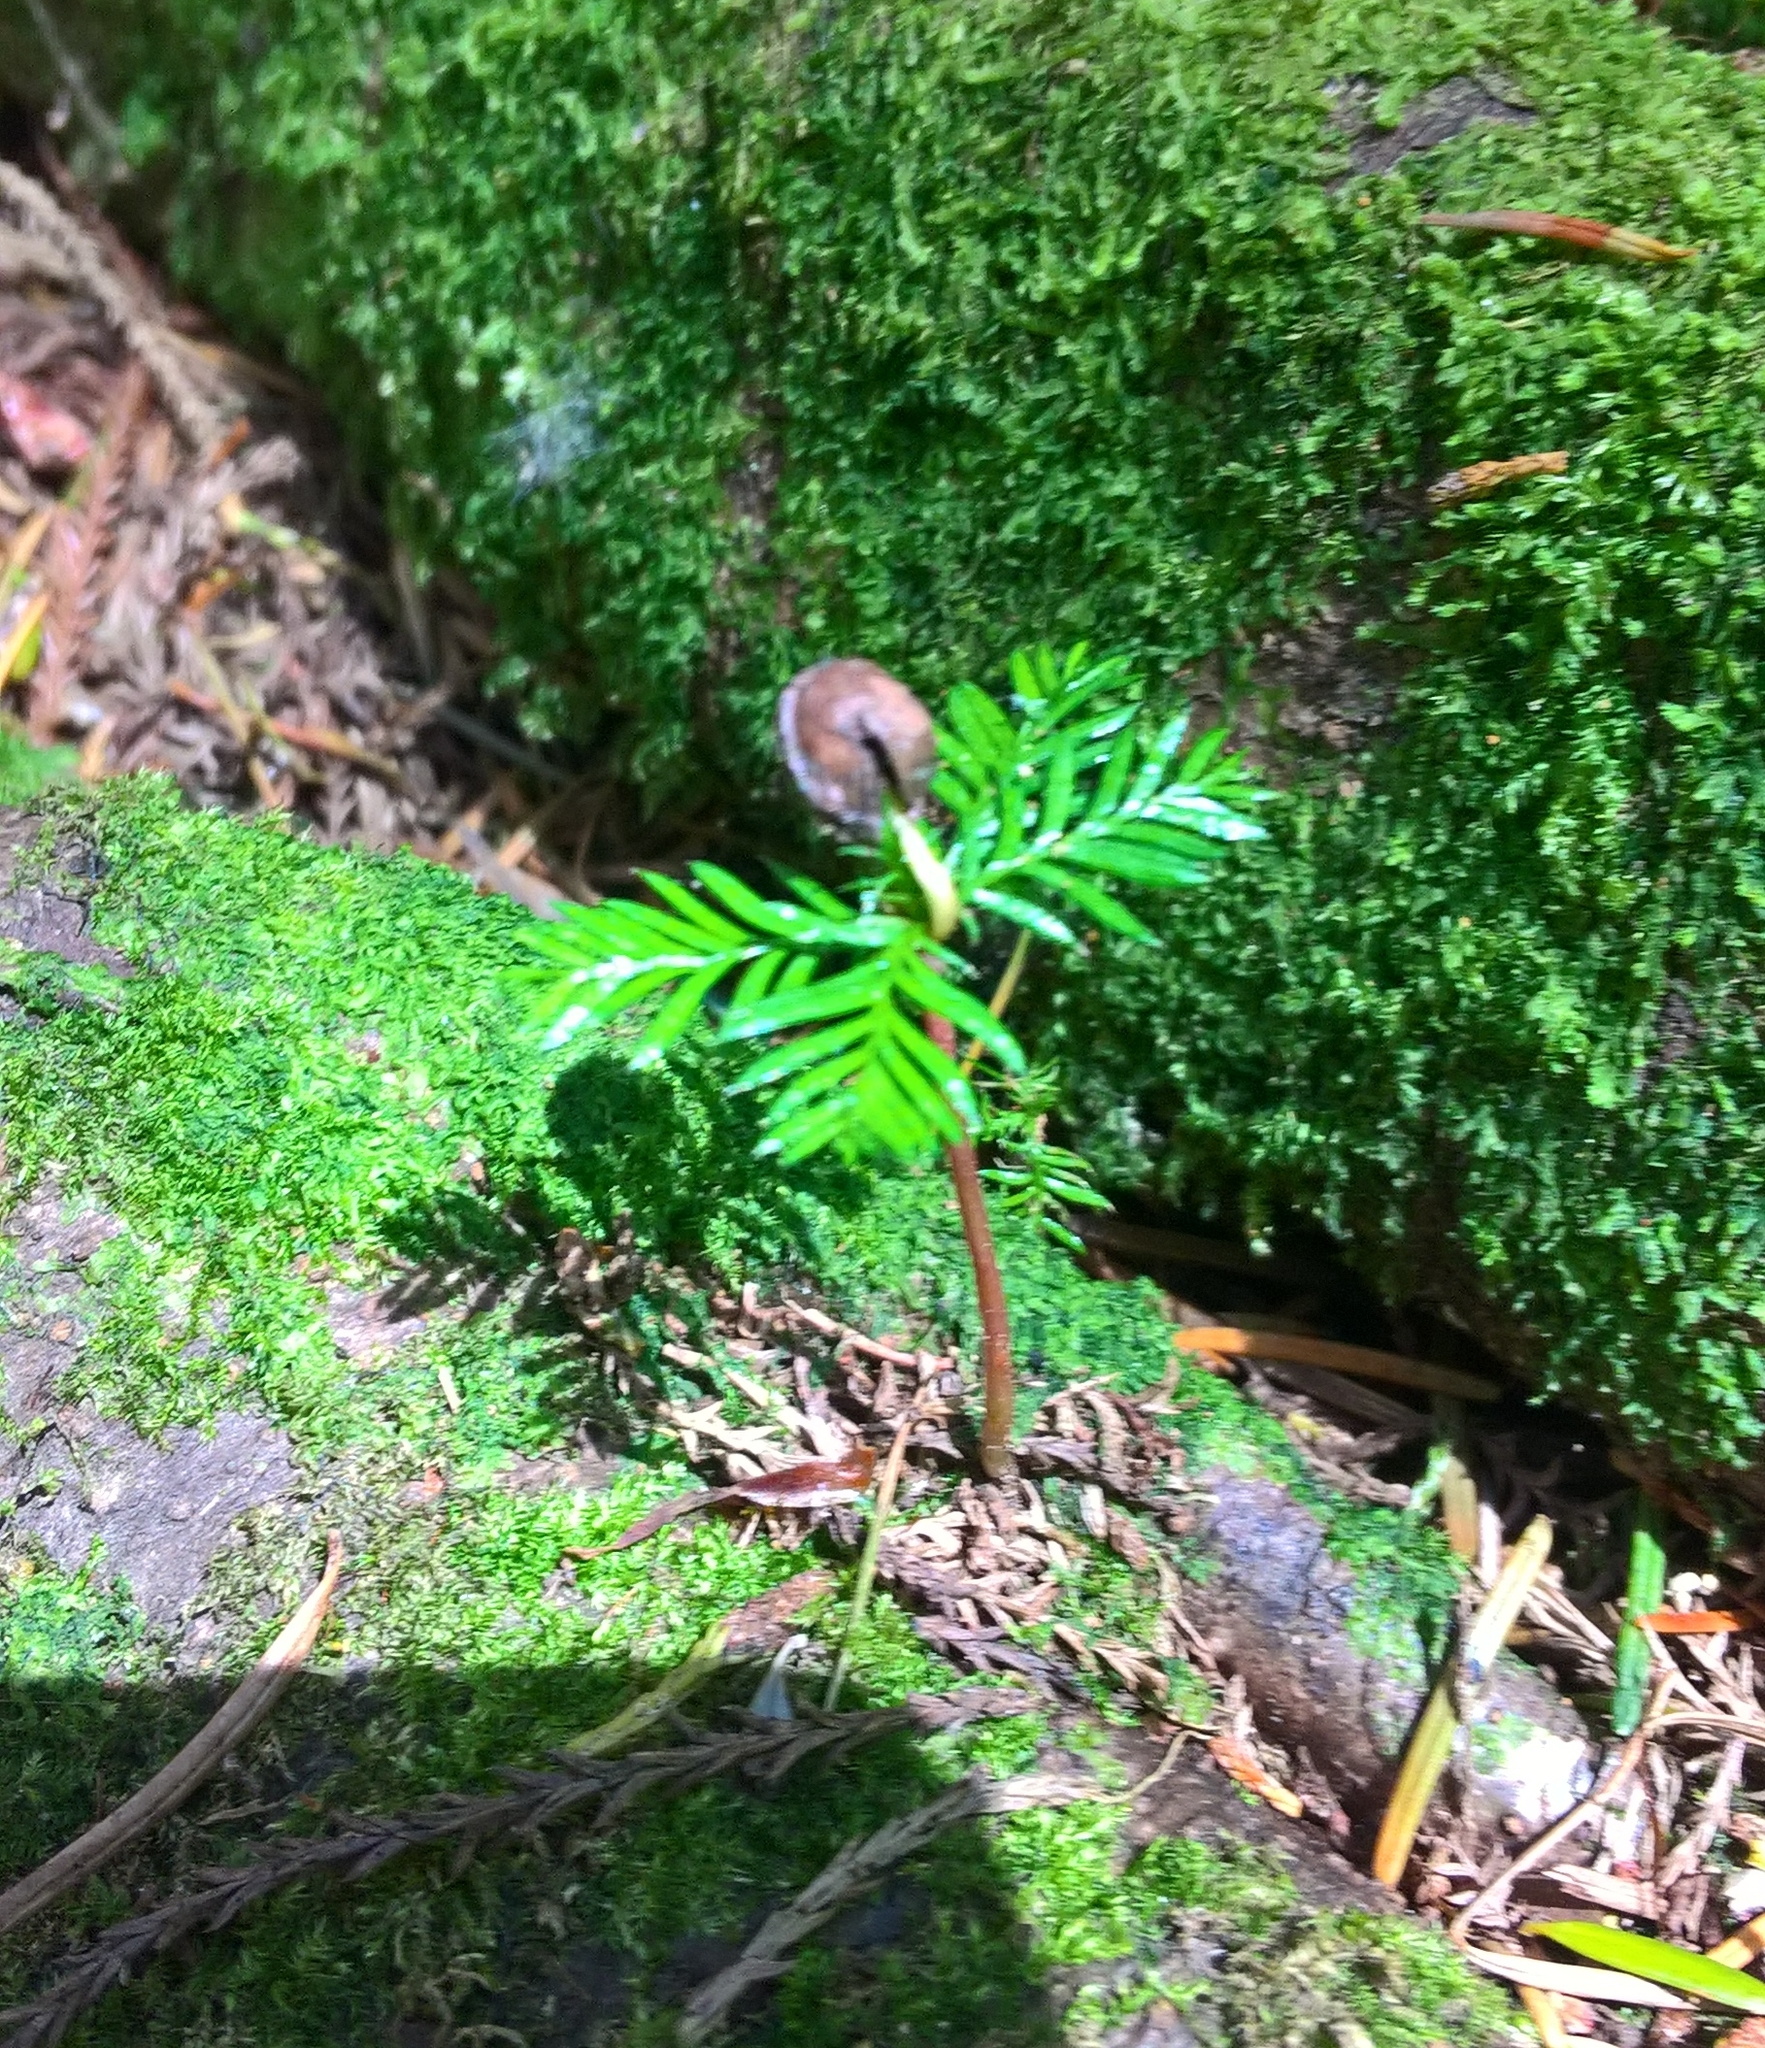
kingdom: Plantae
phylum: Tracheophyta
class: Pinopsida
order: Pinales
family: Podocarpaceae
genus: Dacrycarpus
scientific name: Dacrycarpus dacrydioides
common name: White pine
